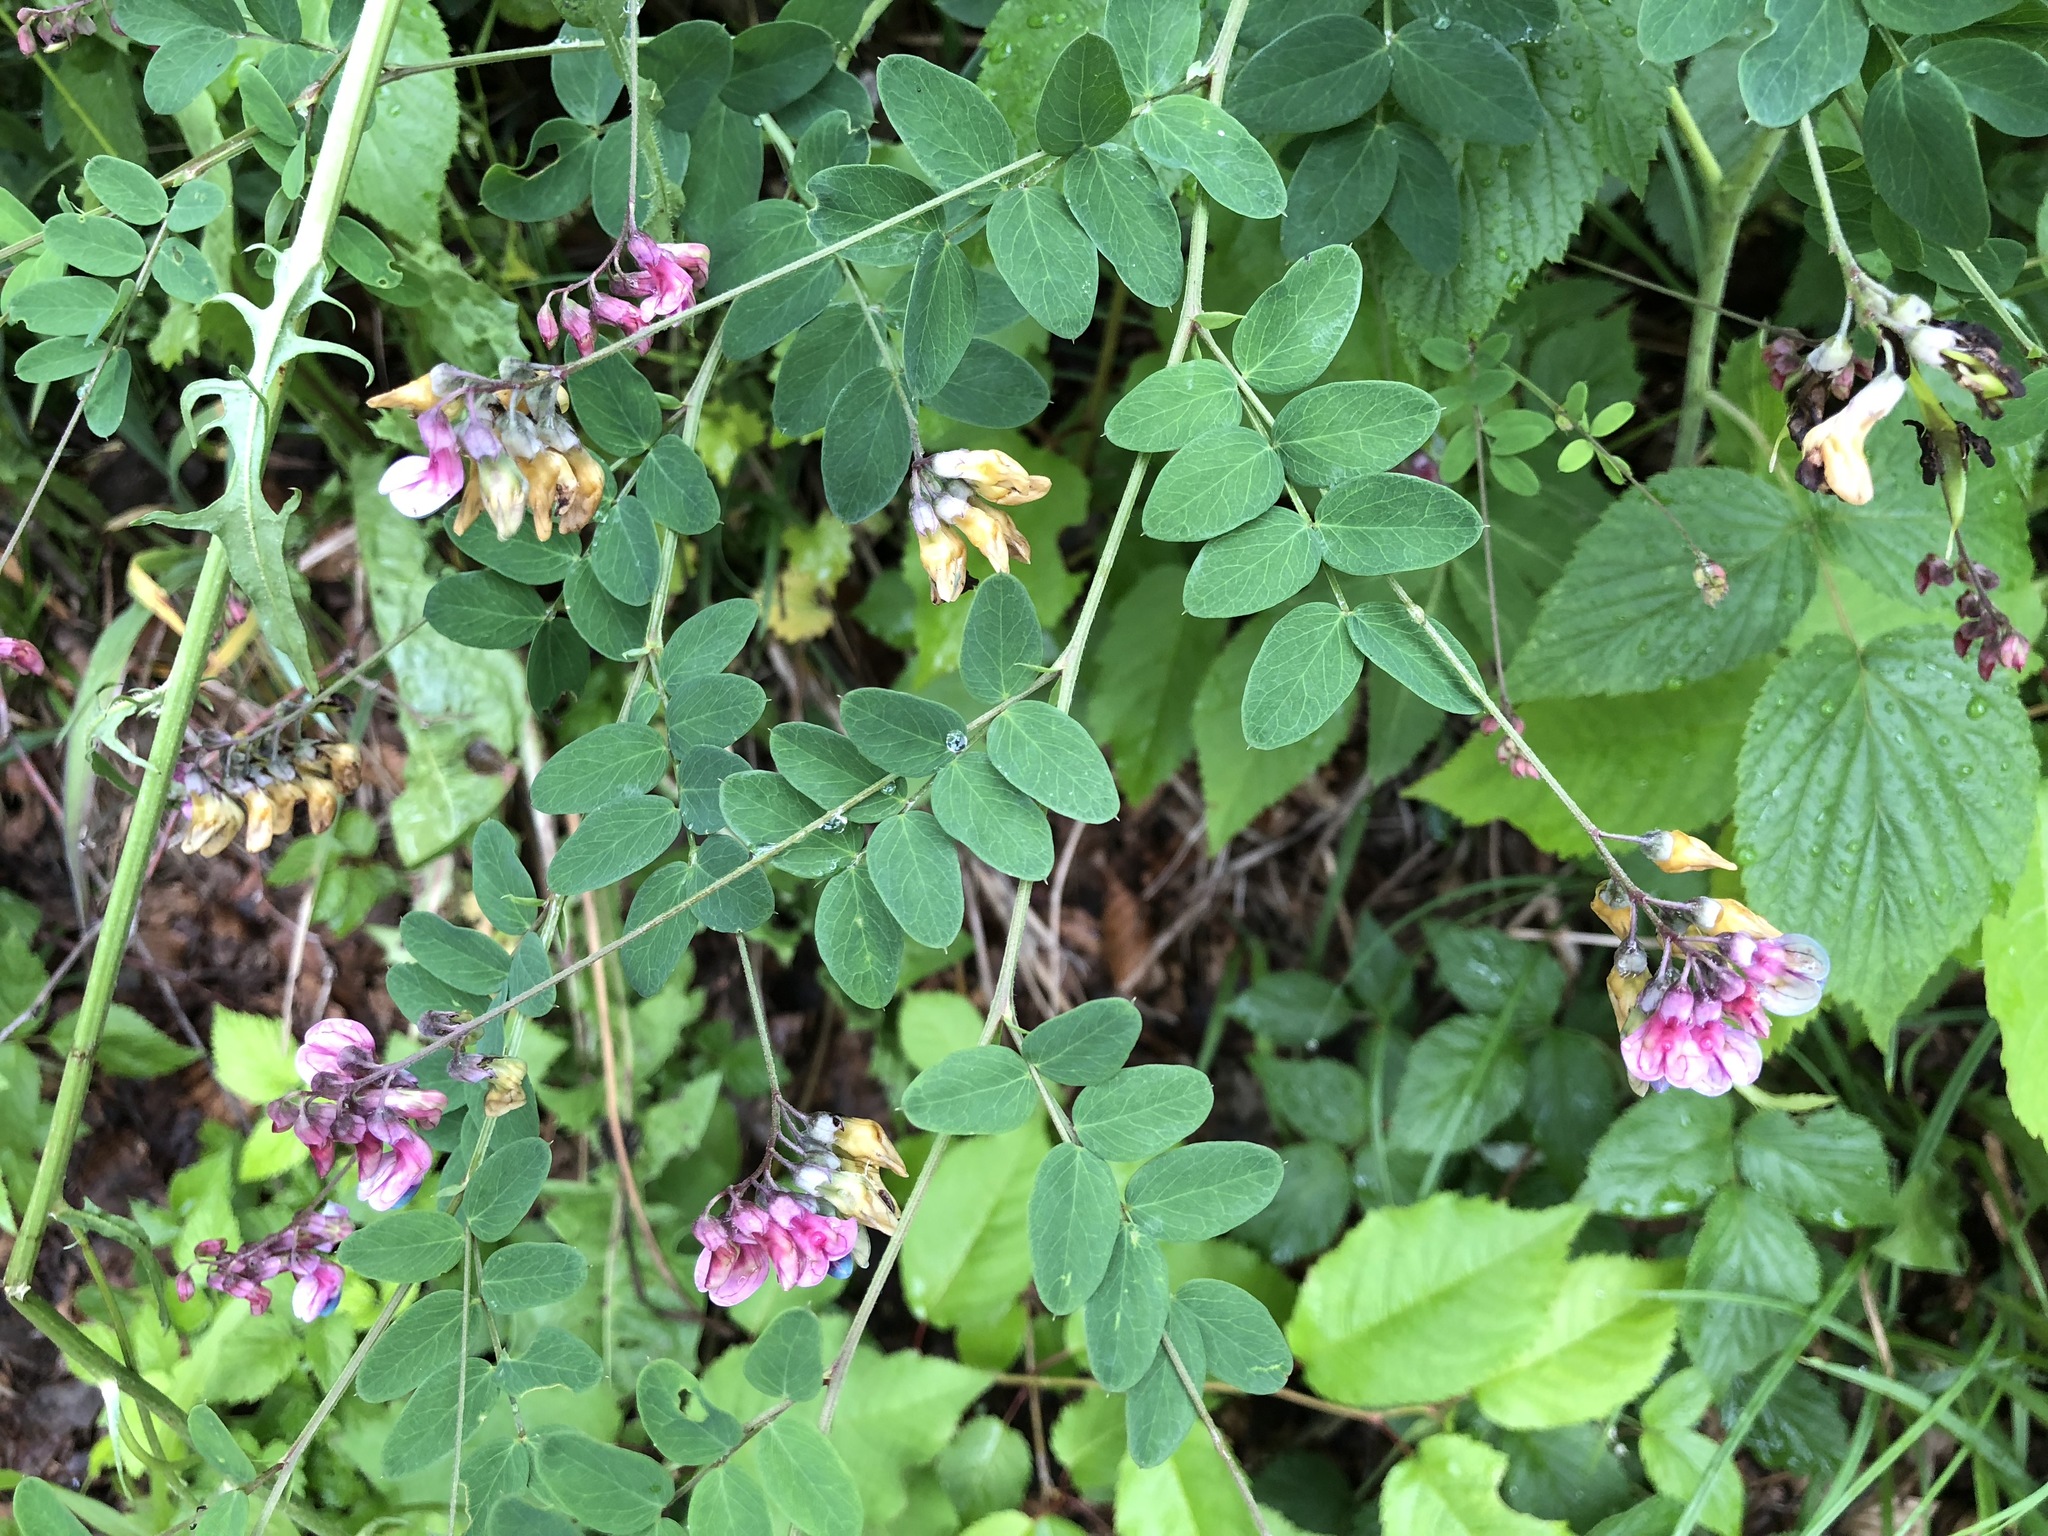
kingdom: Plantae
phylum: Tracheophyta
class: Magnoliopsida
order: Fabales
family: Fabaceae
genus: Lathyrus
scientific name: Lathyrus niger
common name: Black pea
